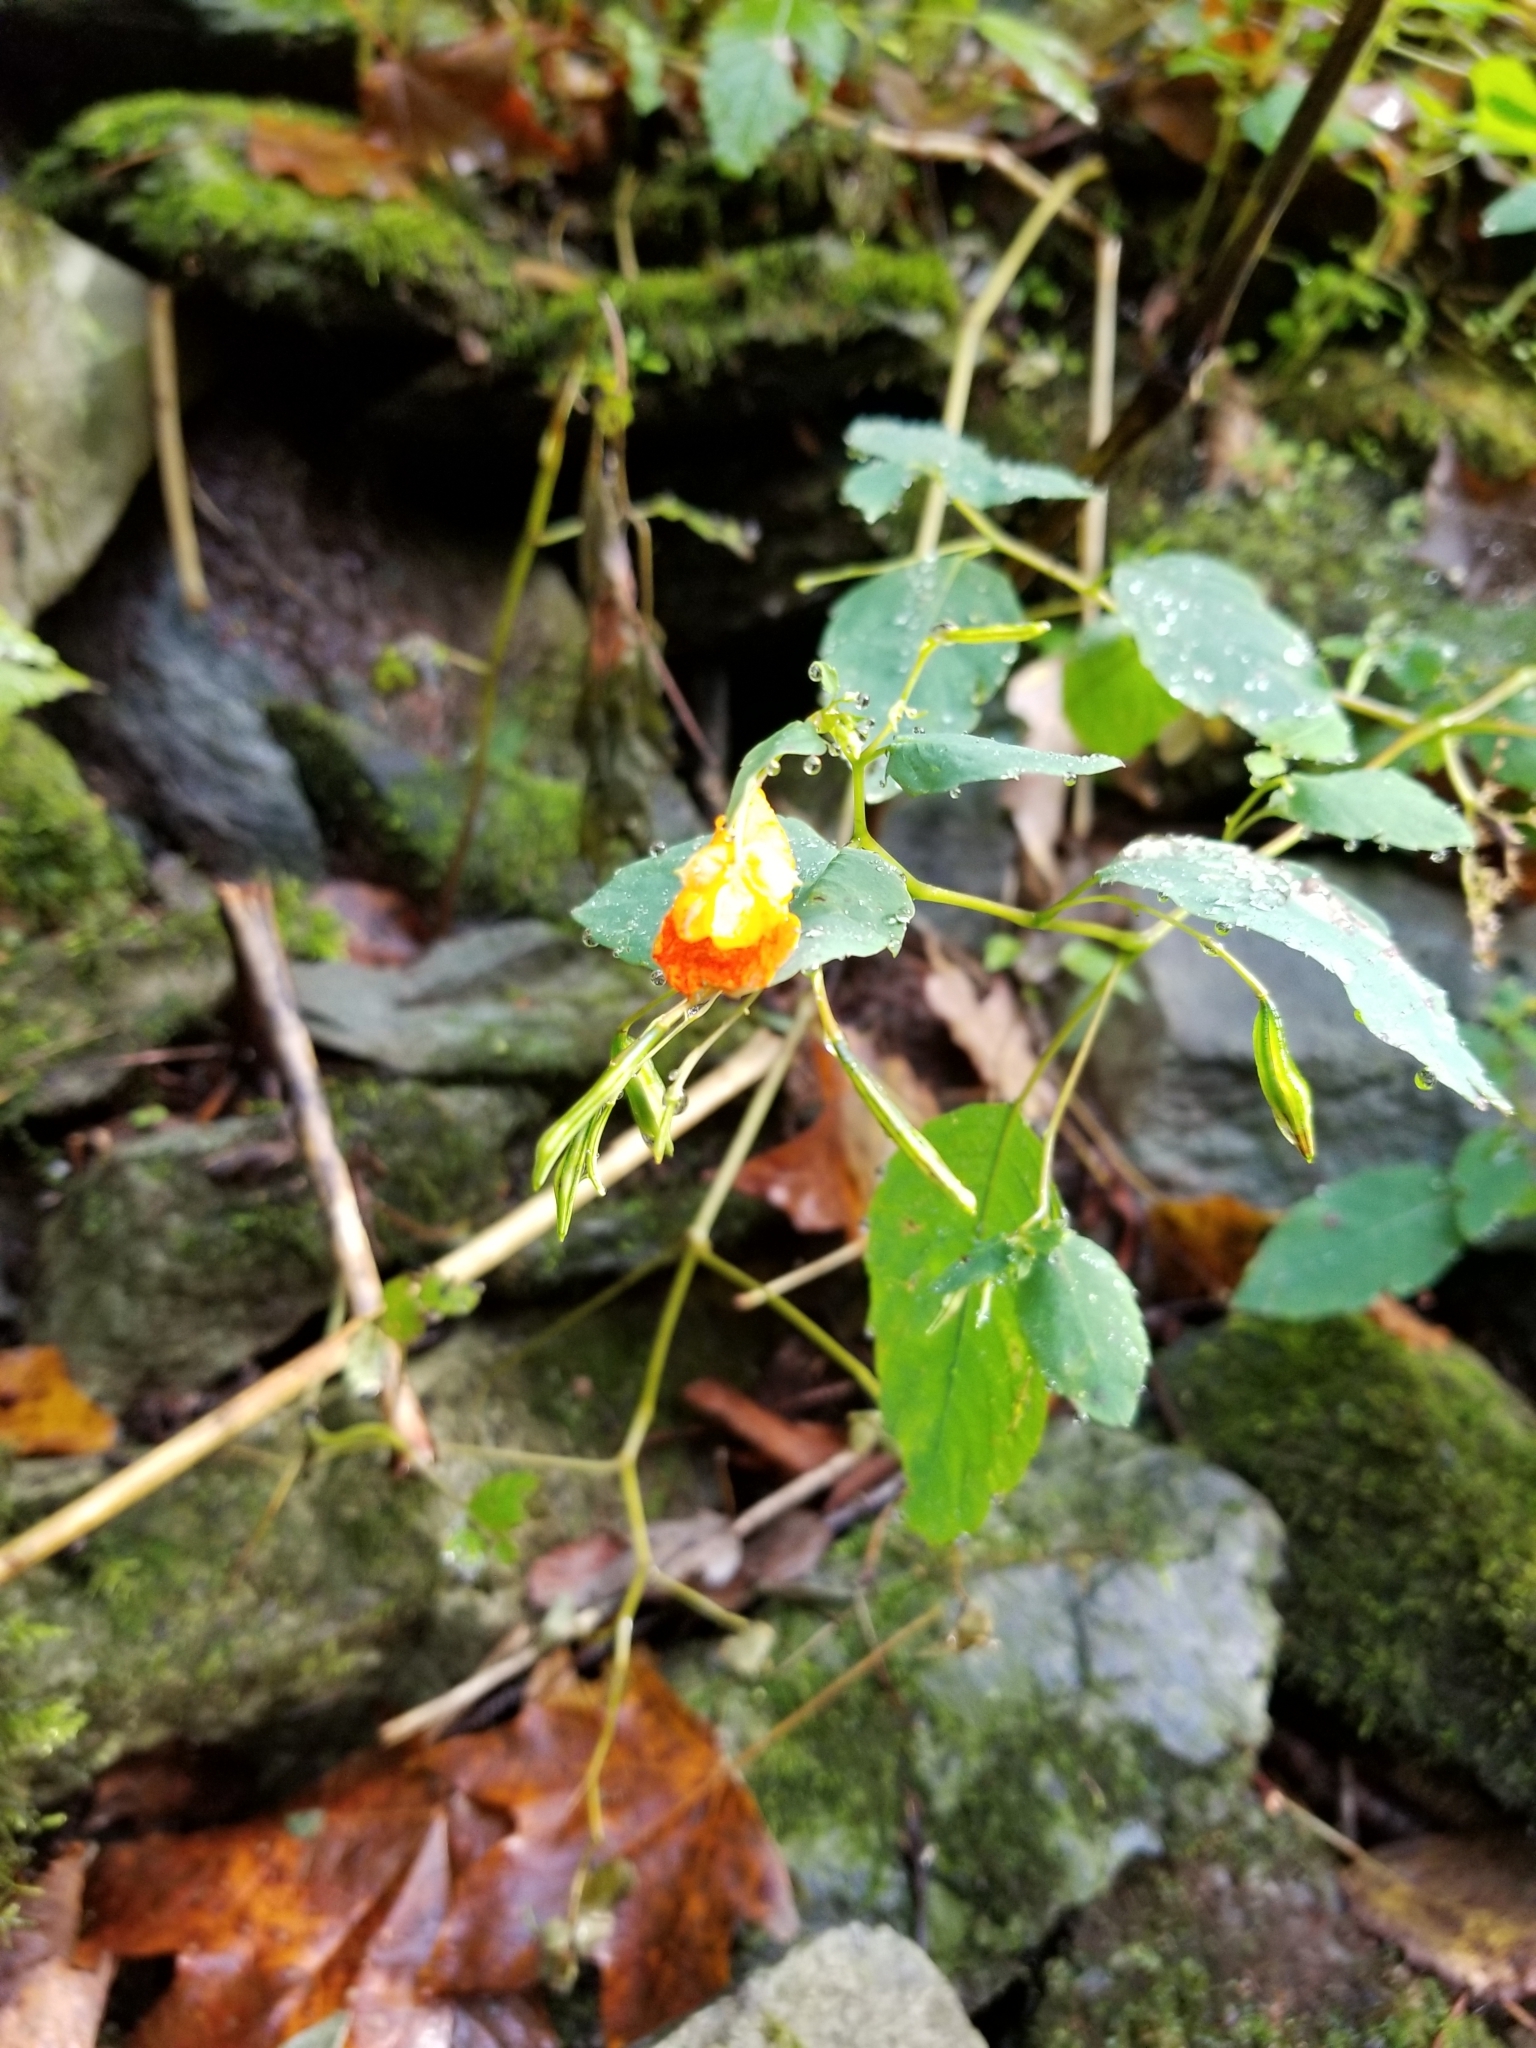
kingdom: Plantae
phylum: Tracheophyta
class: Magnoliopsida
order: Ericales
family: Balsaminaceae
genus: Impatiens
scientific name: Impatiens capensis
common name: Orange balsam
